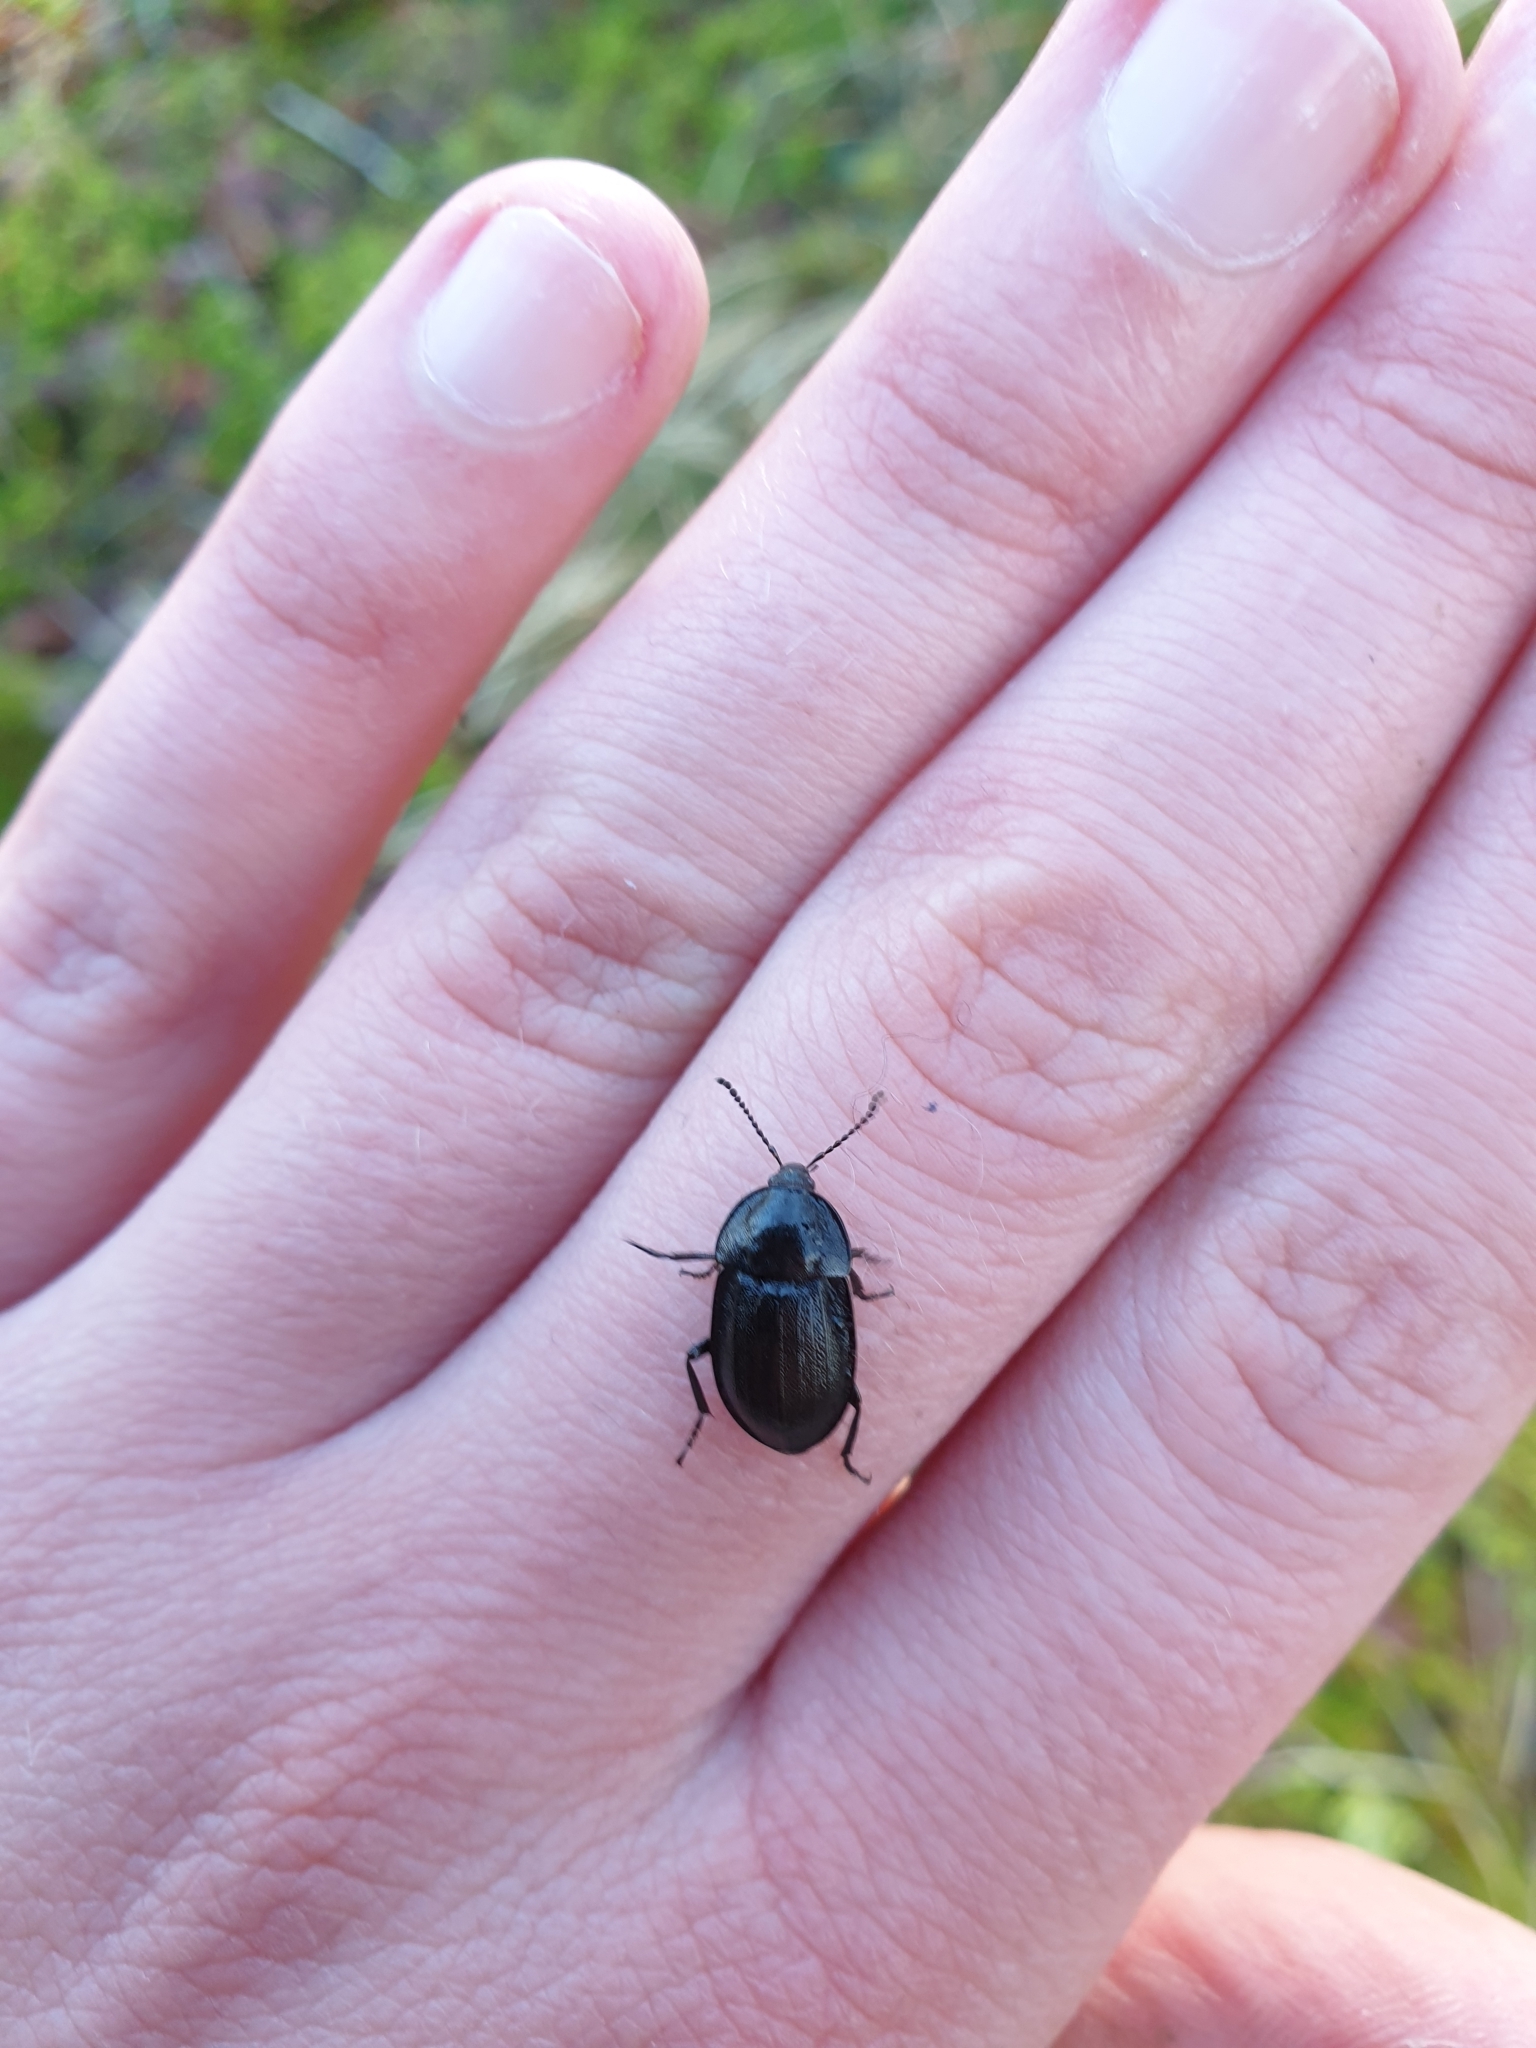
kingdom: Animalia
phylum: Arthropoda
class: Insecta
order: Coleoptera
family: Staphylinidae
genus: Silpha
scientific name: Silpha atrata
